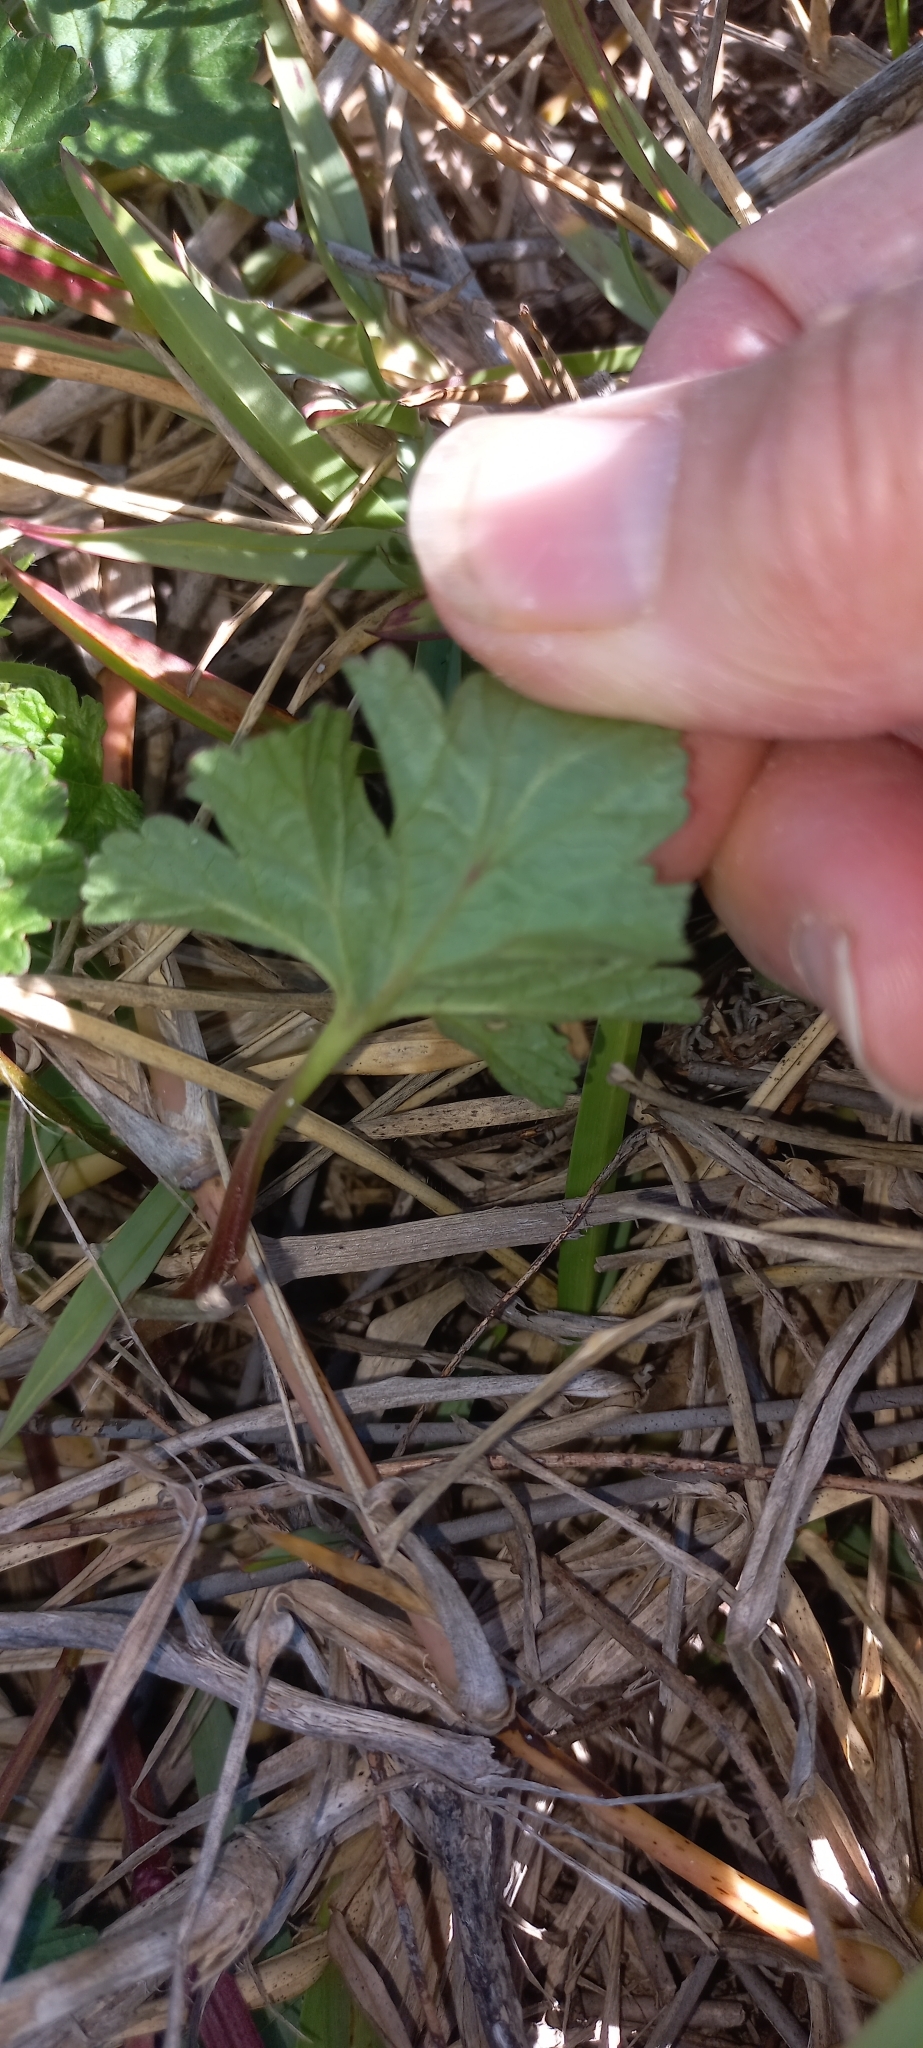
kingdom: Plantae
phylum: Tracheophyta
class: Magnoliopsida
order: Geraniales
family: Geraniaceae
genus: Pelargonium
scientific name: Pelargonium grossularioides
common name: Gooseberry geranium
